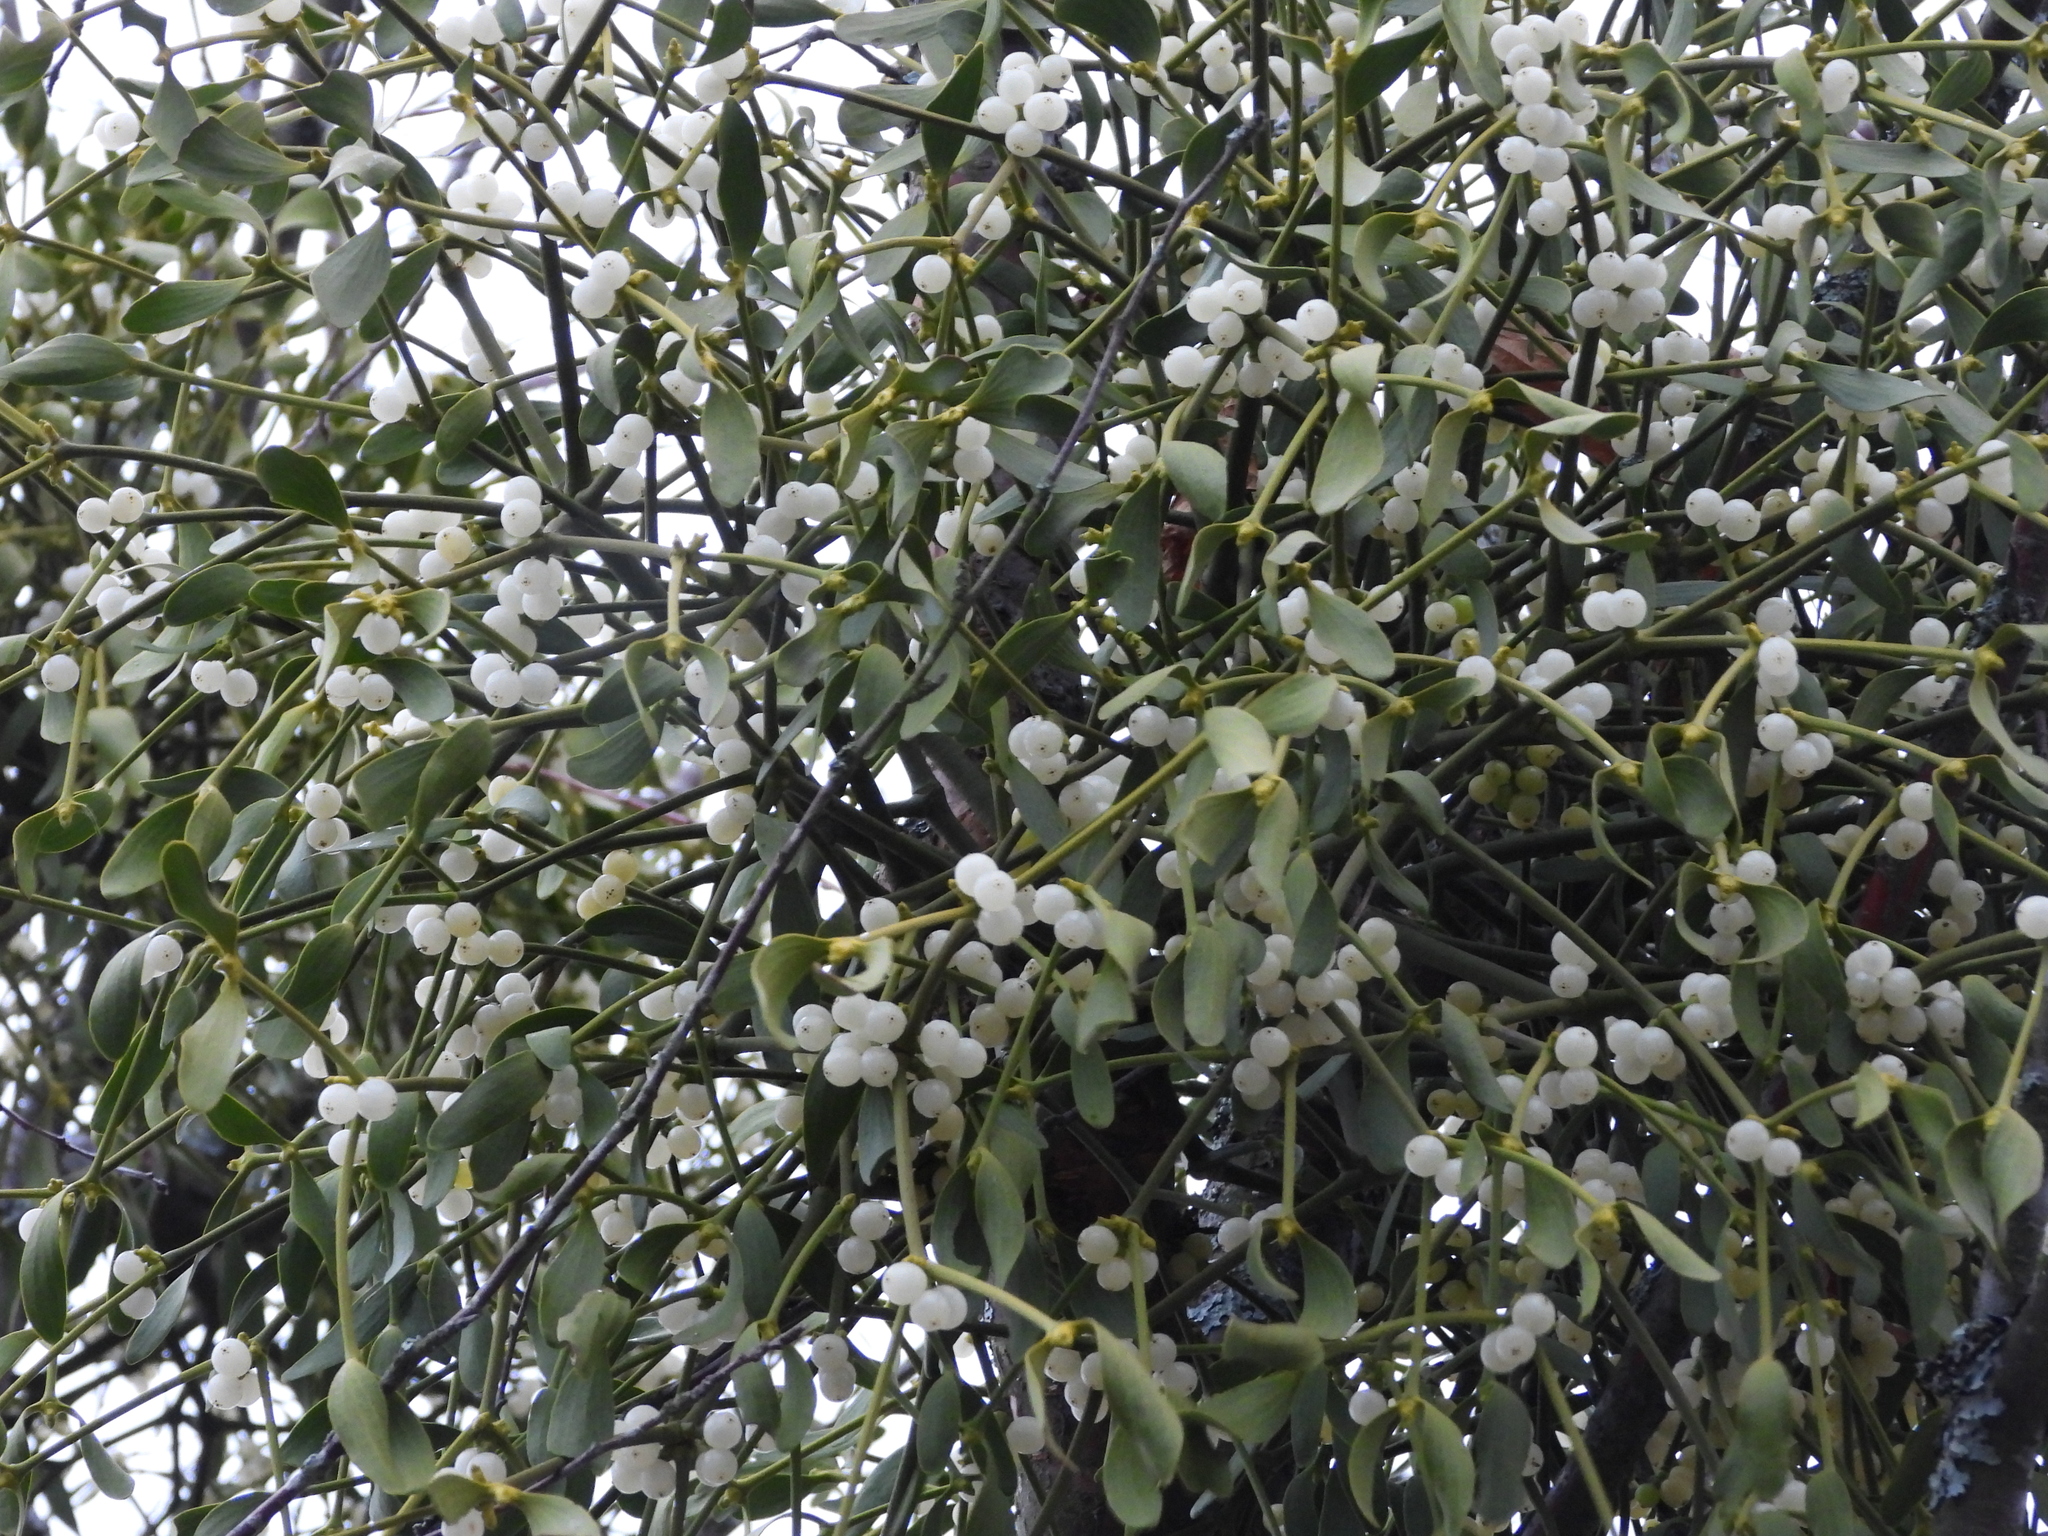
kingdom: Plantae
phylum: Tracheophyta
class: Magnoliopsida
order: Santalales
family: Viscaceae
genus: Viscum
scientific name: Viscum album
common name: Mistletoe
